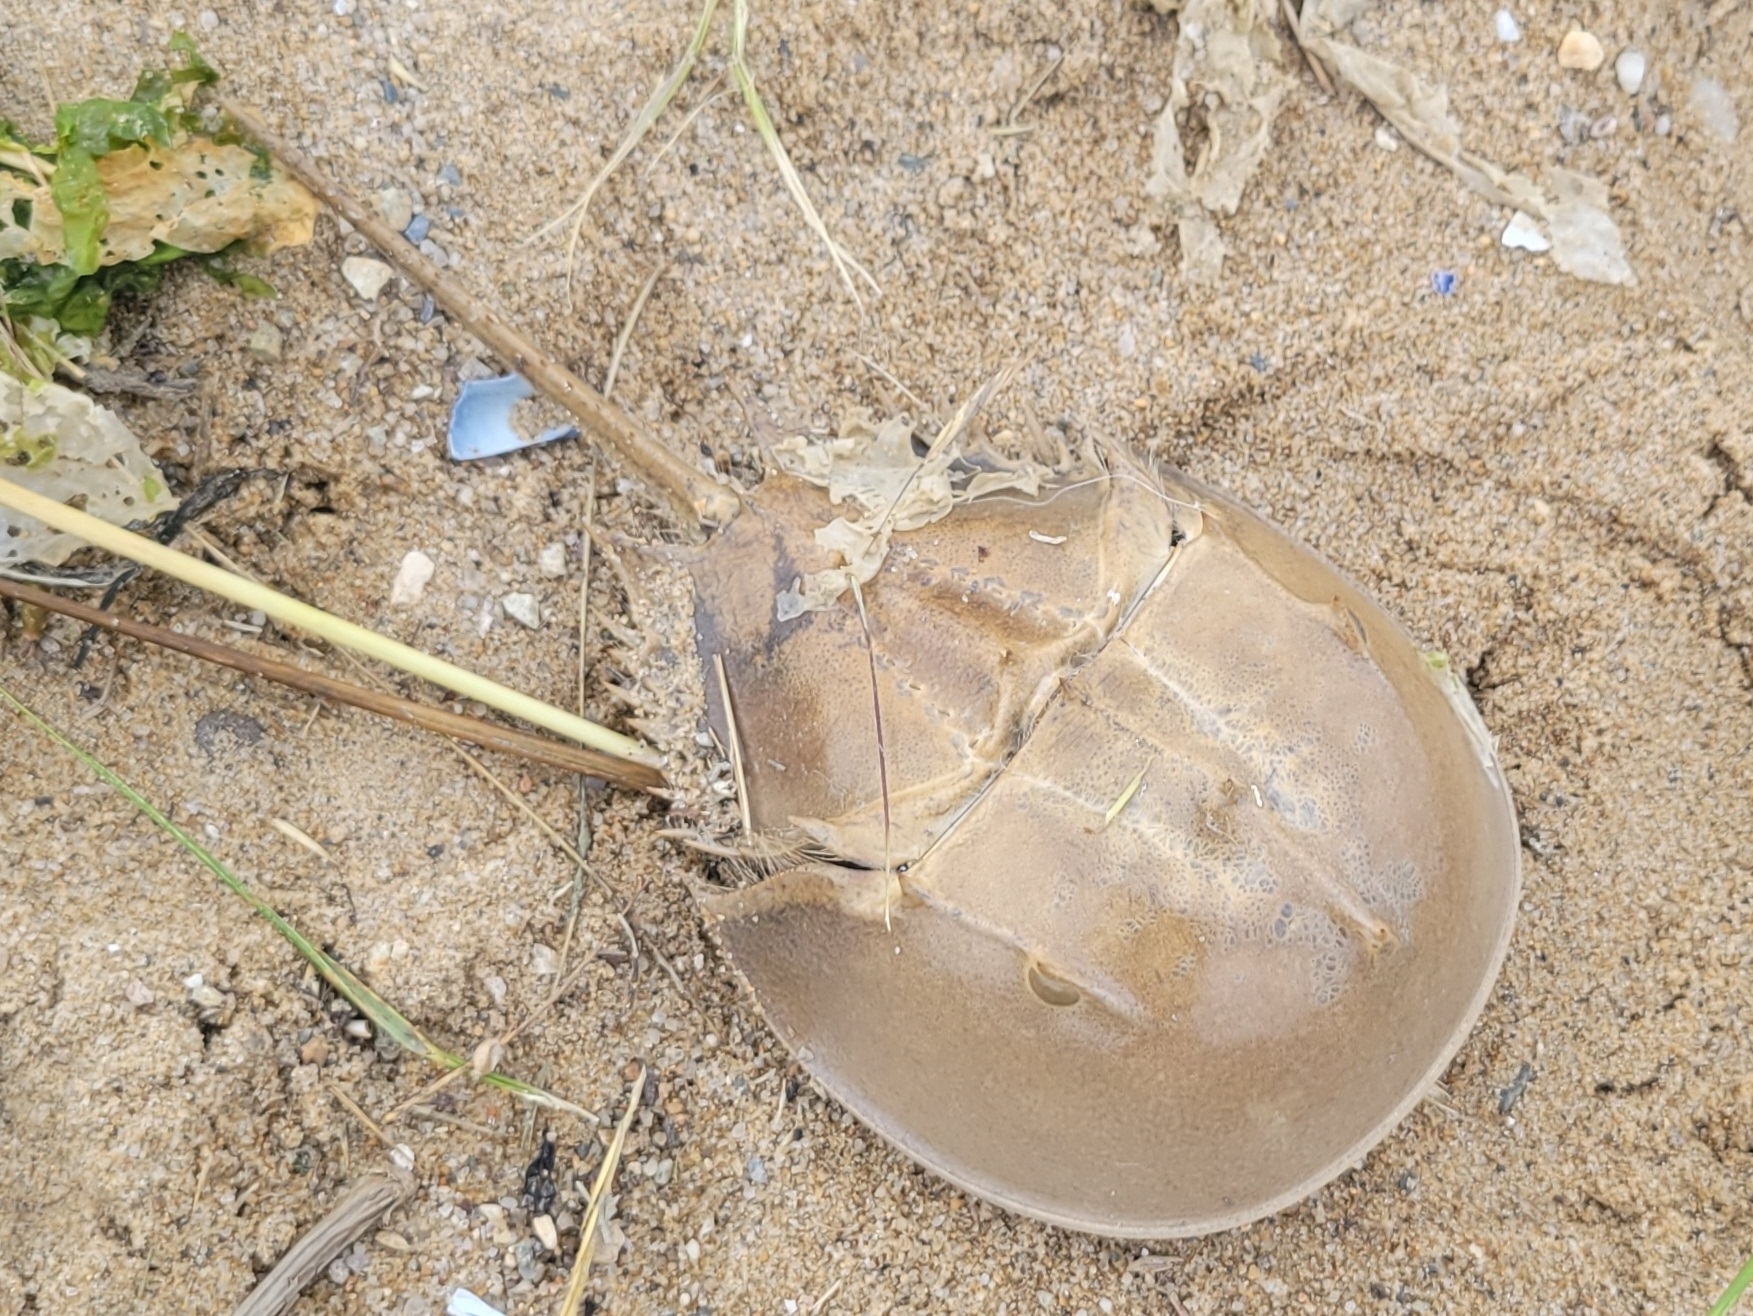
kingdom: Animalia
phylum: Arthropoda
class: Merostomata
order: Xiphosurida
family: Limulidae
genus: Limulus
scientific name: Limulus polyphemus
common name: Horseshoe crab
